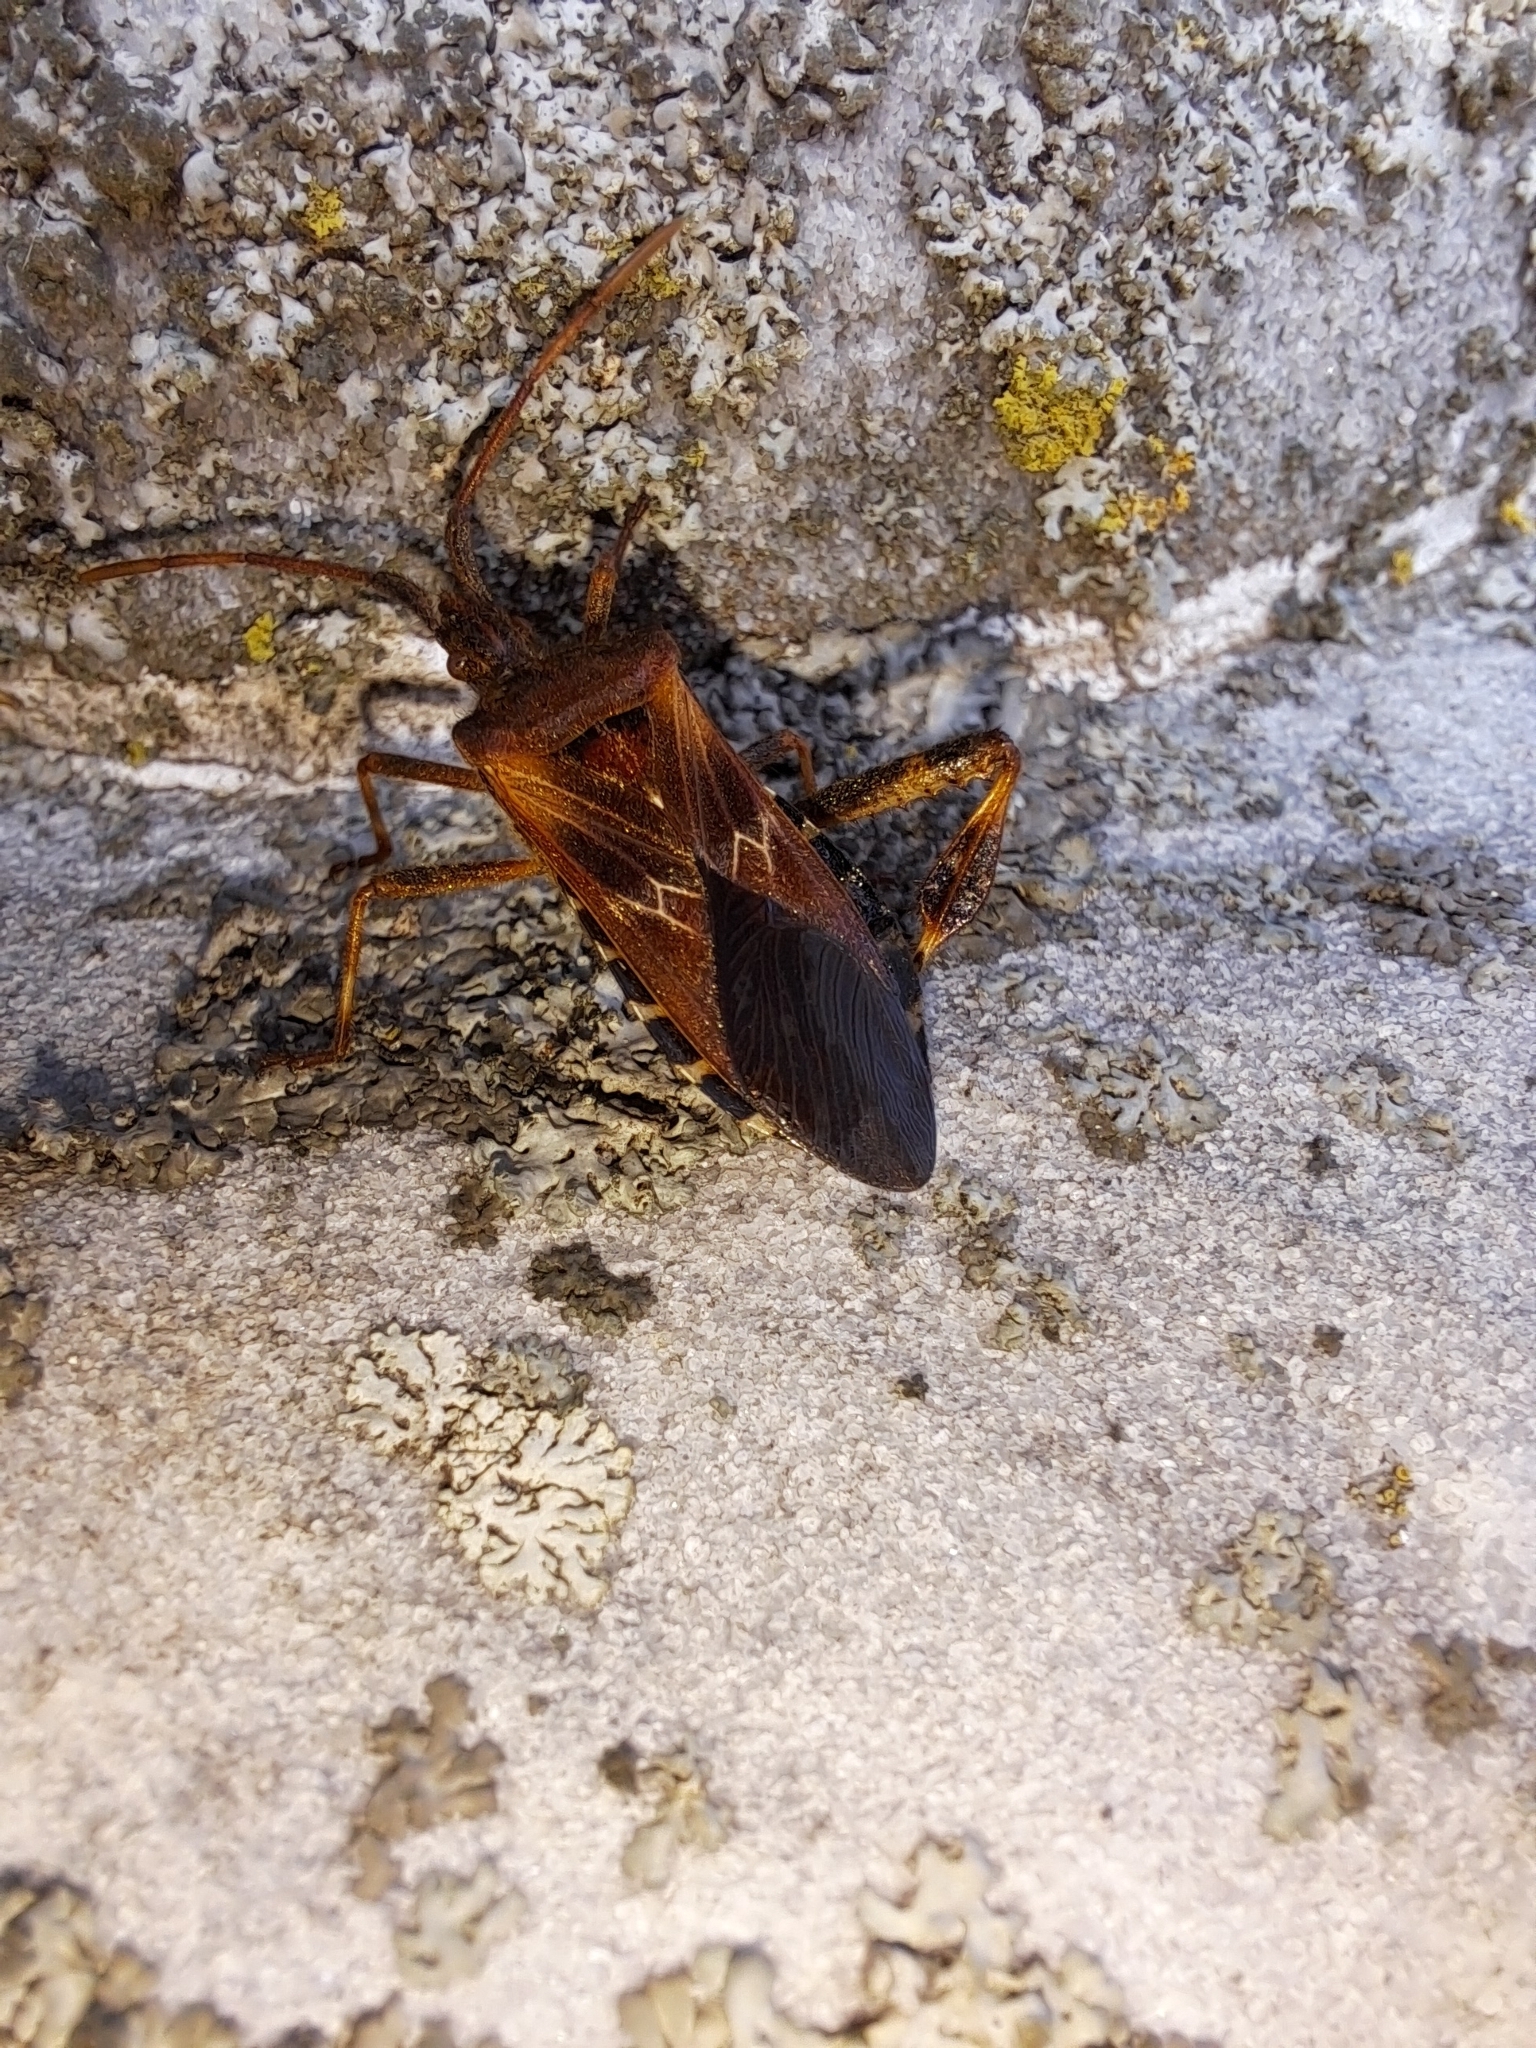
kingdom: Animalia
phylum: Arthropoda
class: Insecta
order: Hemiptera
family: Coreidae
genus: Leptoglossus
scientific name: Leptoglossus occidentalis
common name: Western conifer-seed bug
